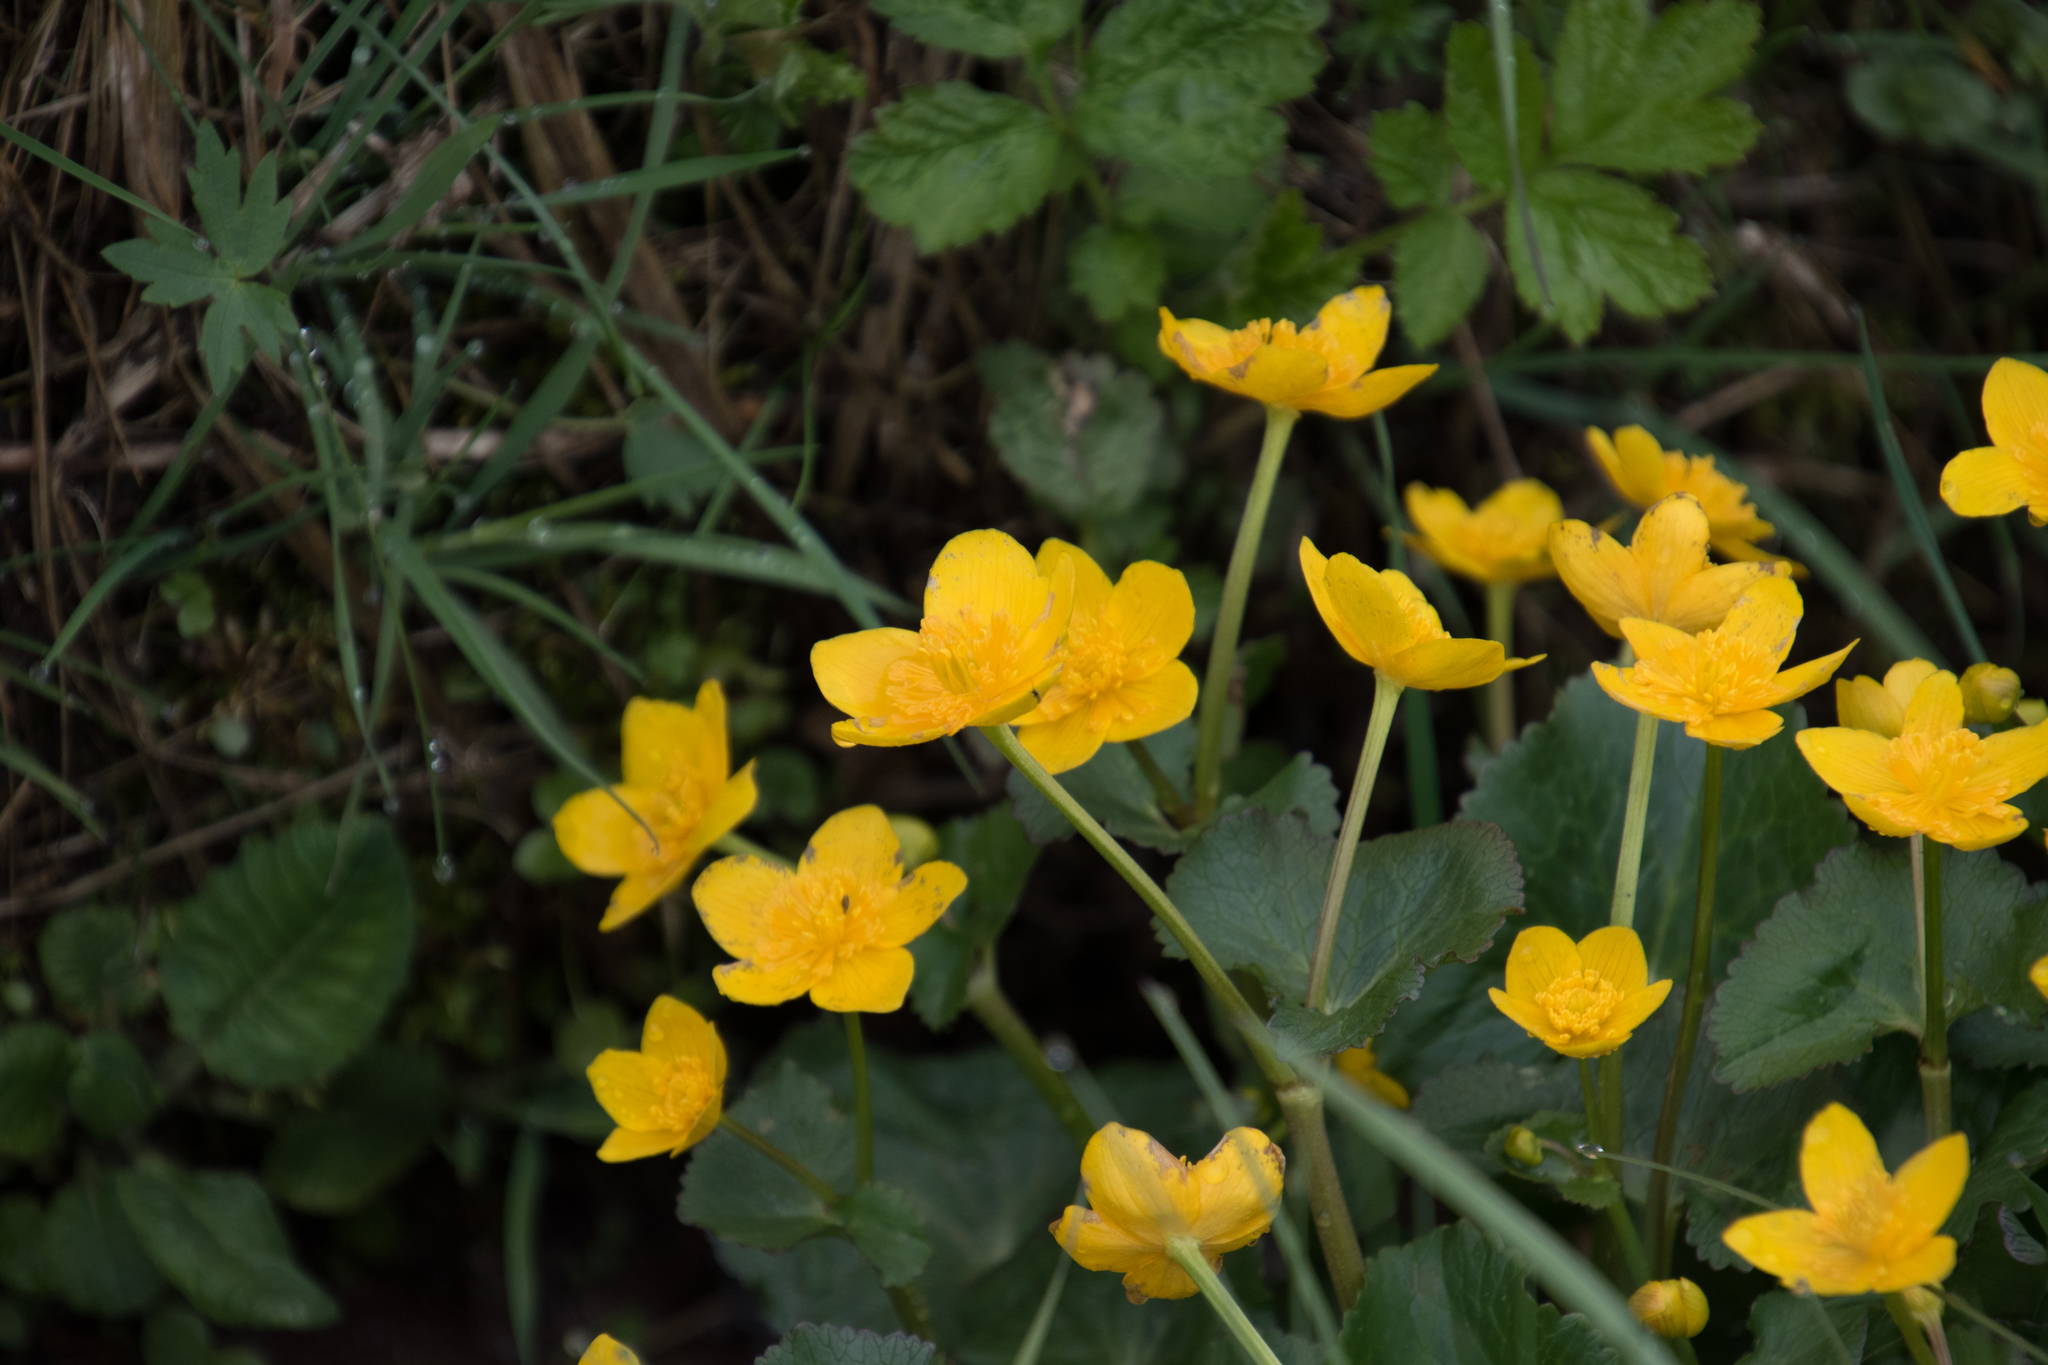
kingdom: Plantae
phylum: Tracheophyta
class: Magnoliopsida
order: Ranunculales
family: Ranunculaceae
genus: Caltha
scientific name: Caltha palustris
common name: Marsh marigold
